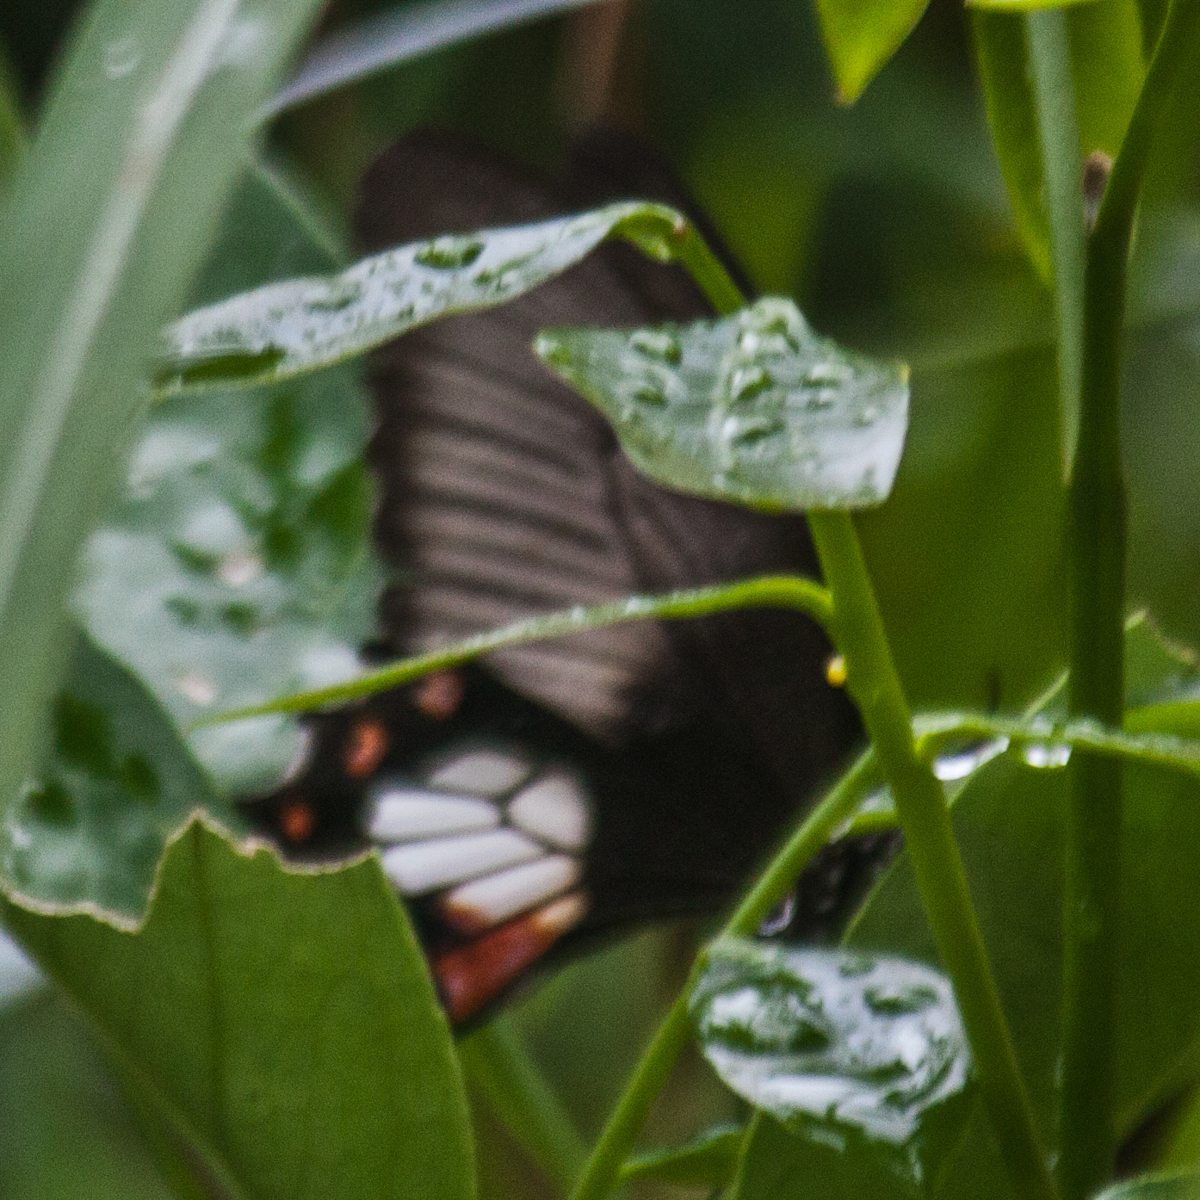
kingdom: Animalia
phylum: Arthropoda
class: Insecta
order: Lepidoptera
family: Papilionidae
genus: Papilio
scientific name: Papilio polytes
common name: Common mormon
